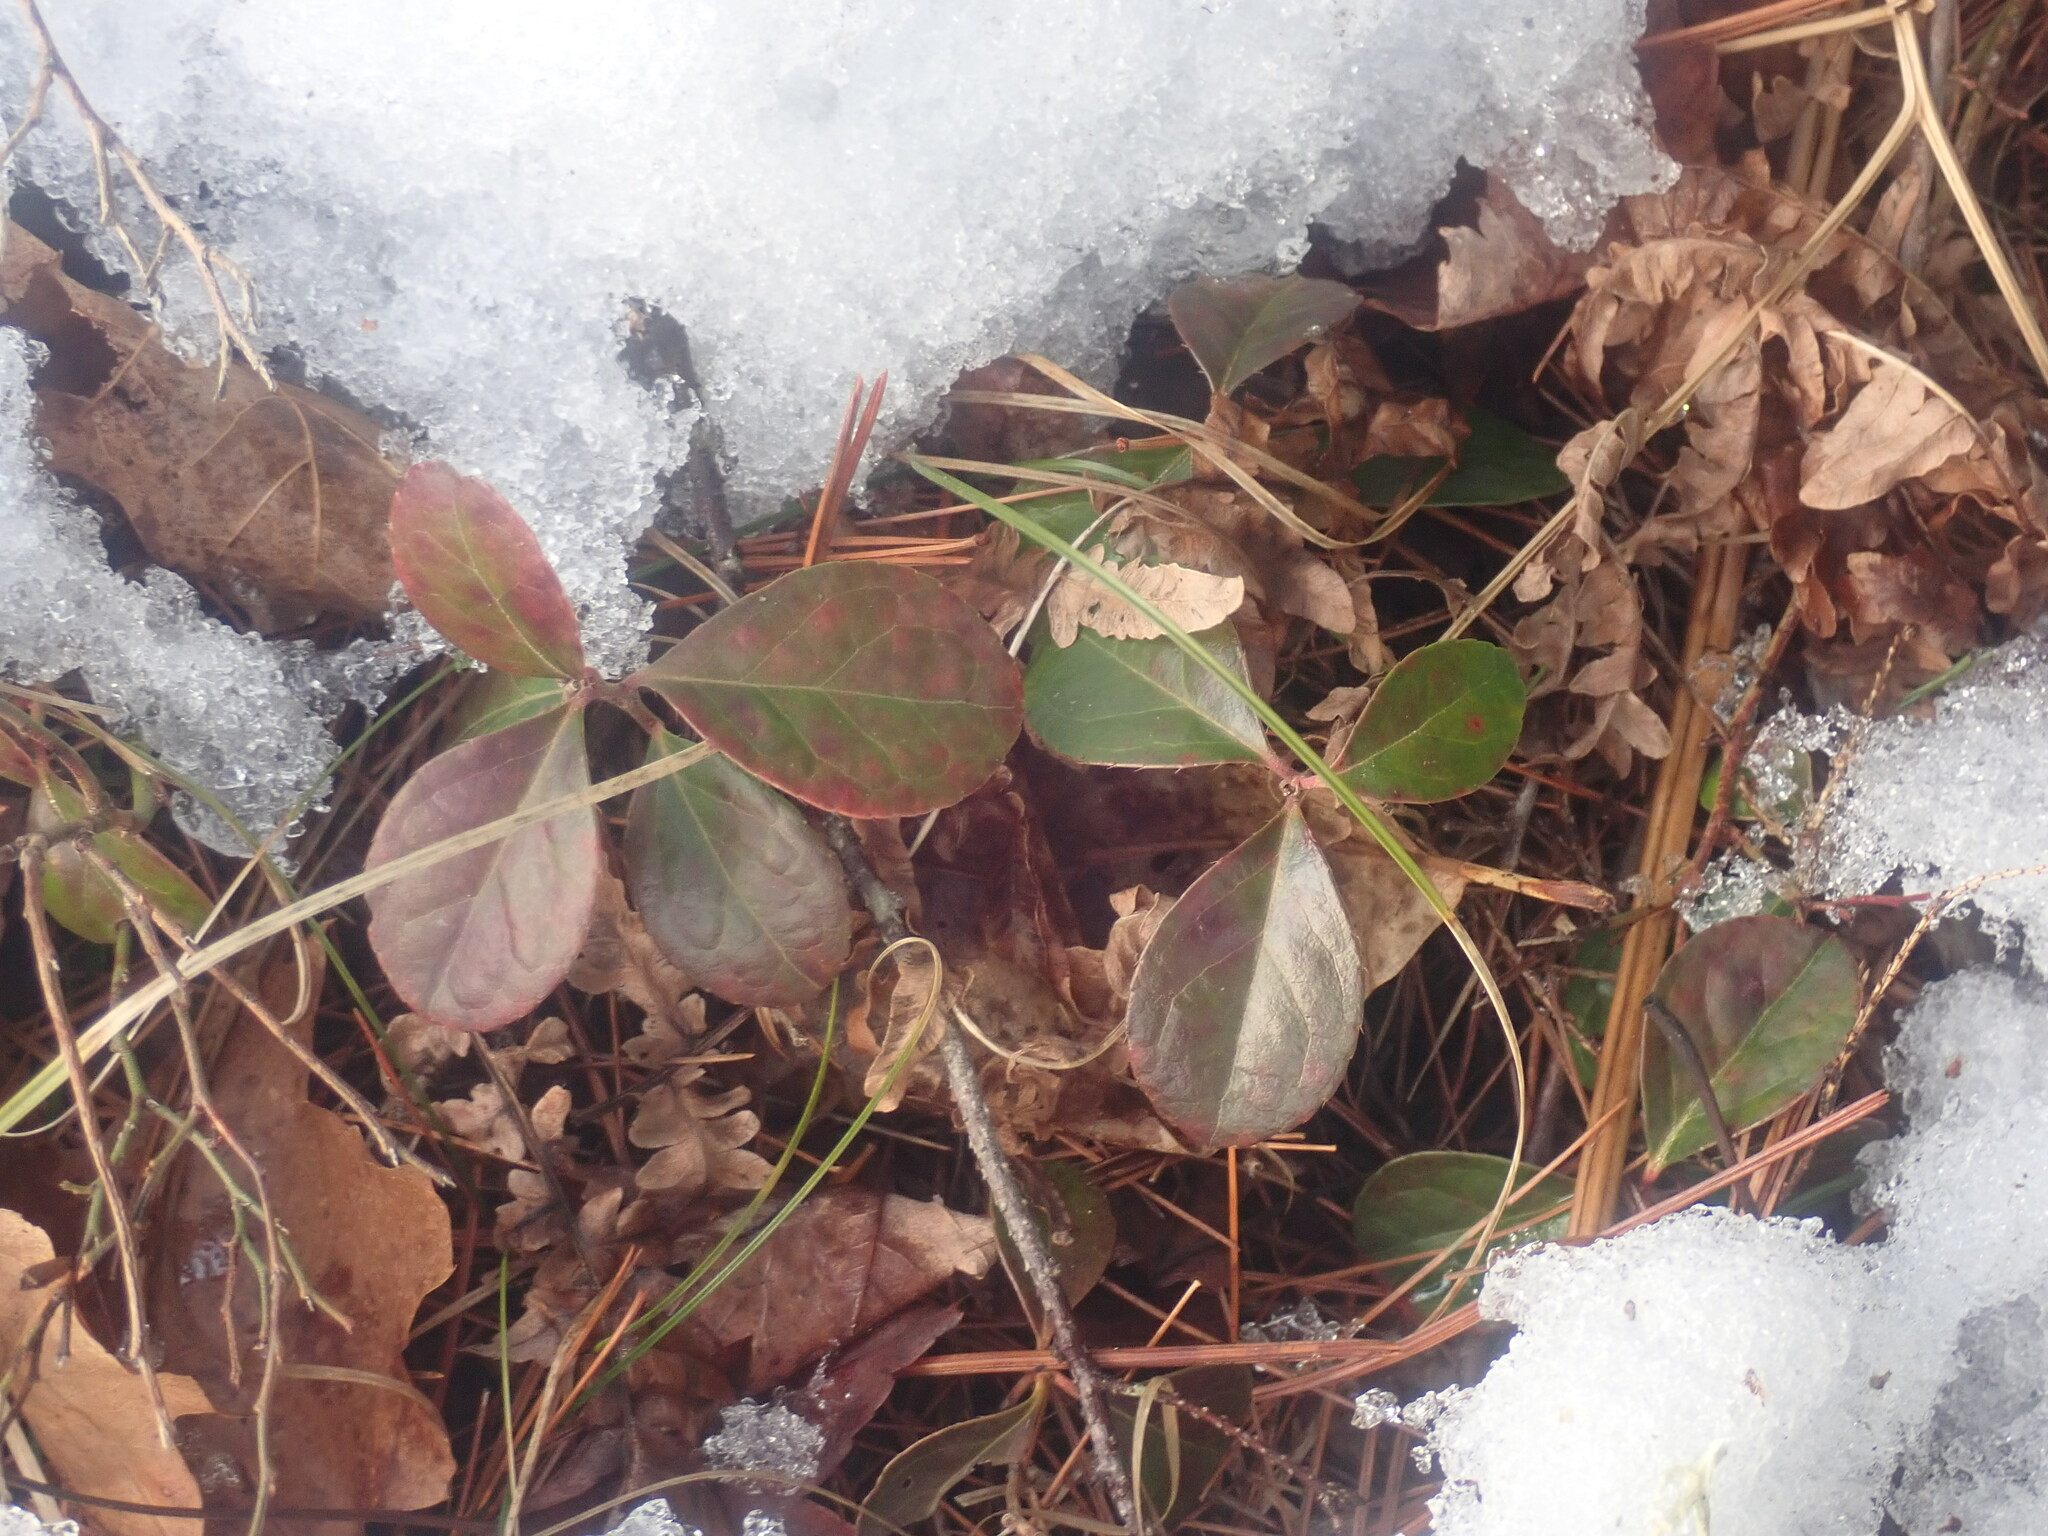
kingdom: Plantae
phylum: Tracheophyta
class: Magnoliopsida
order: Ericales
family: Ericaceae
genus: Gaultheria
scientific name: Gaultheria procumbens
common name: Checkerberry
